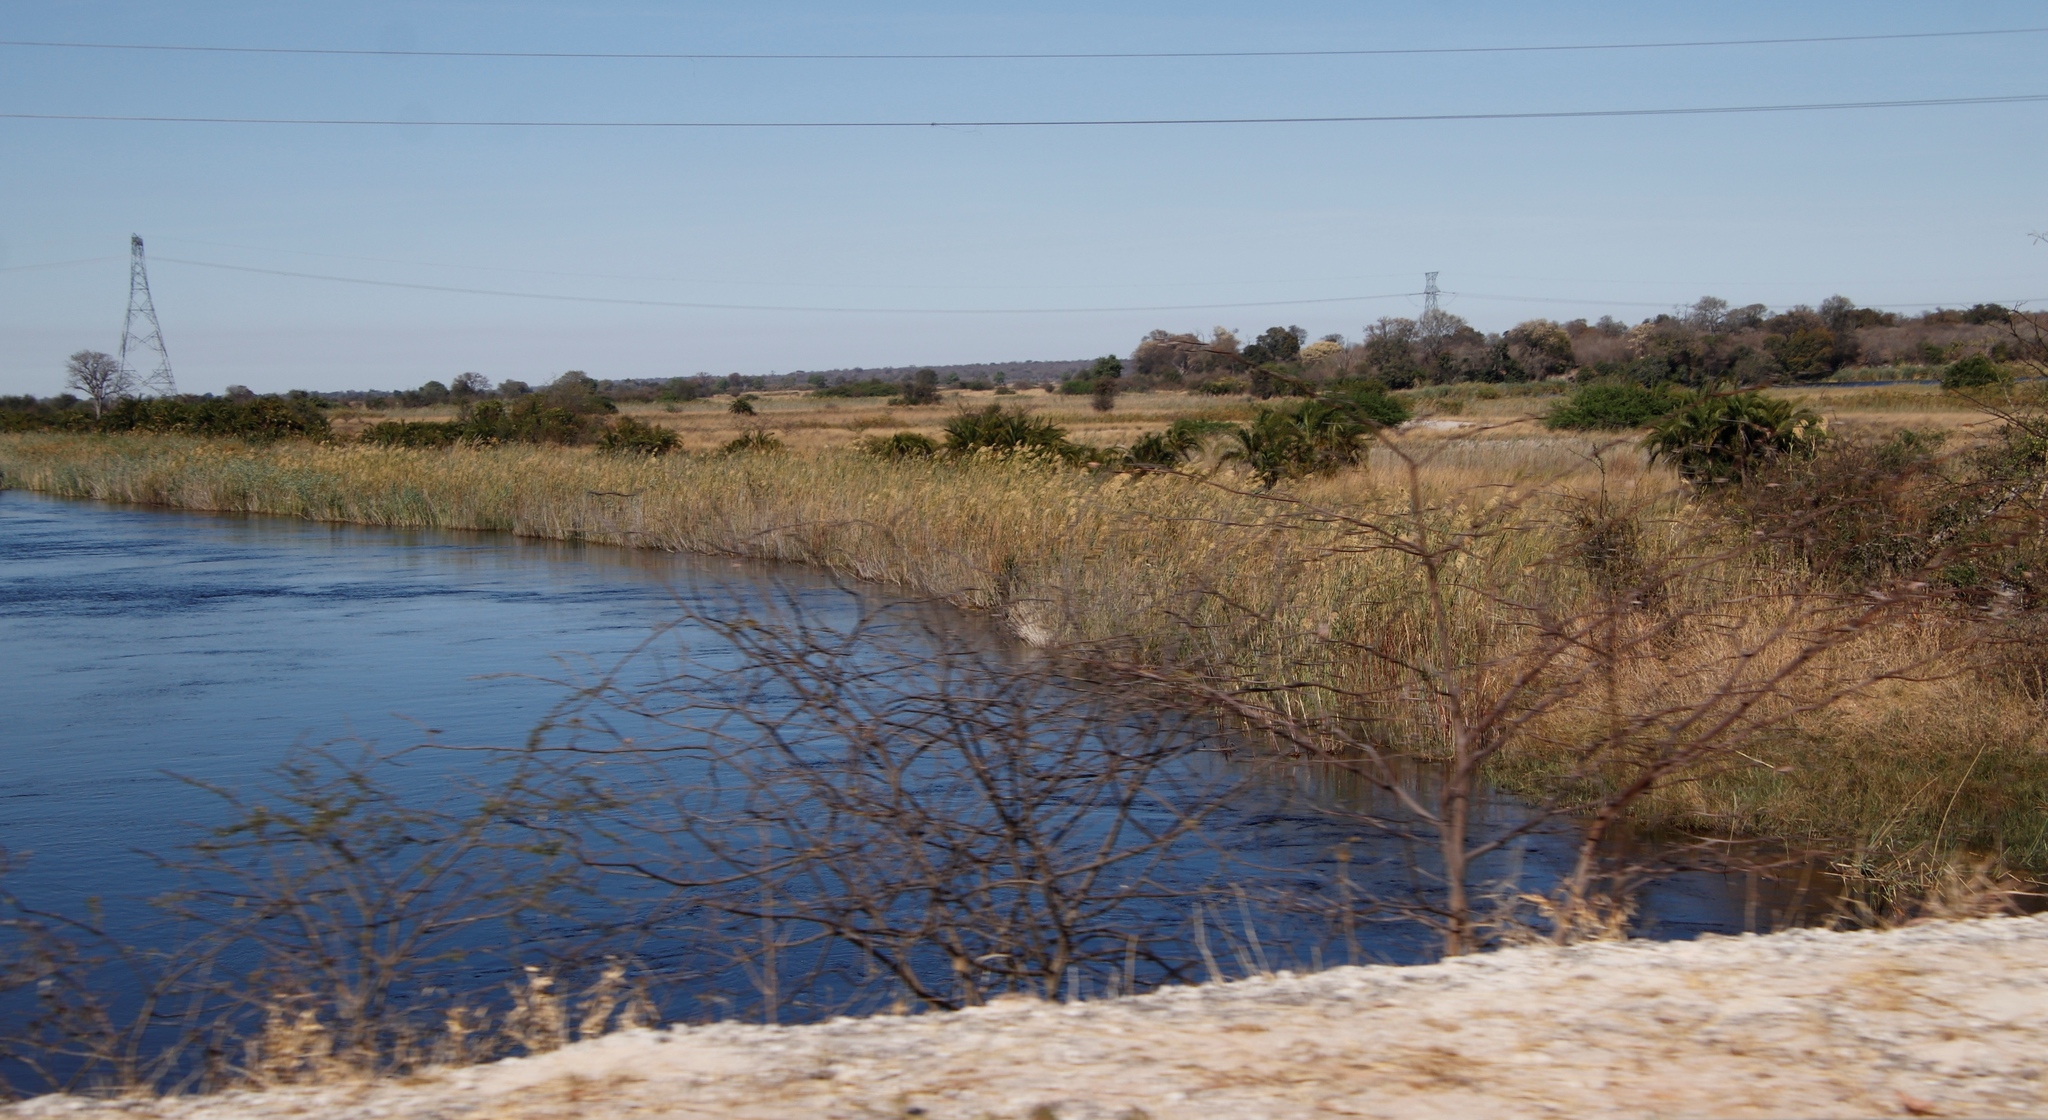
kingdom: Plantae
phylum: Tracheophyta
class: Liliopsida
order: Poales
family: Poaceae
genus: Phragmites
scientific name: Phragmites australis
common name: Common reed
